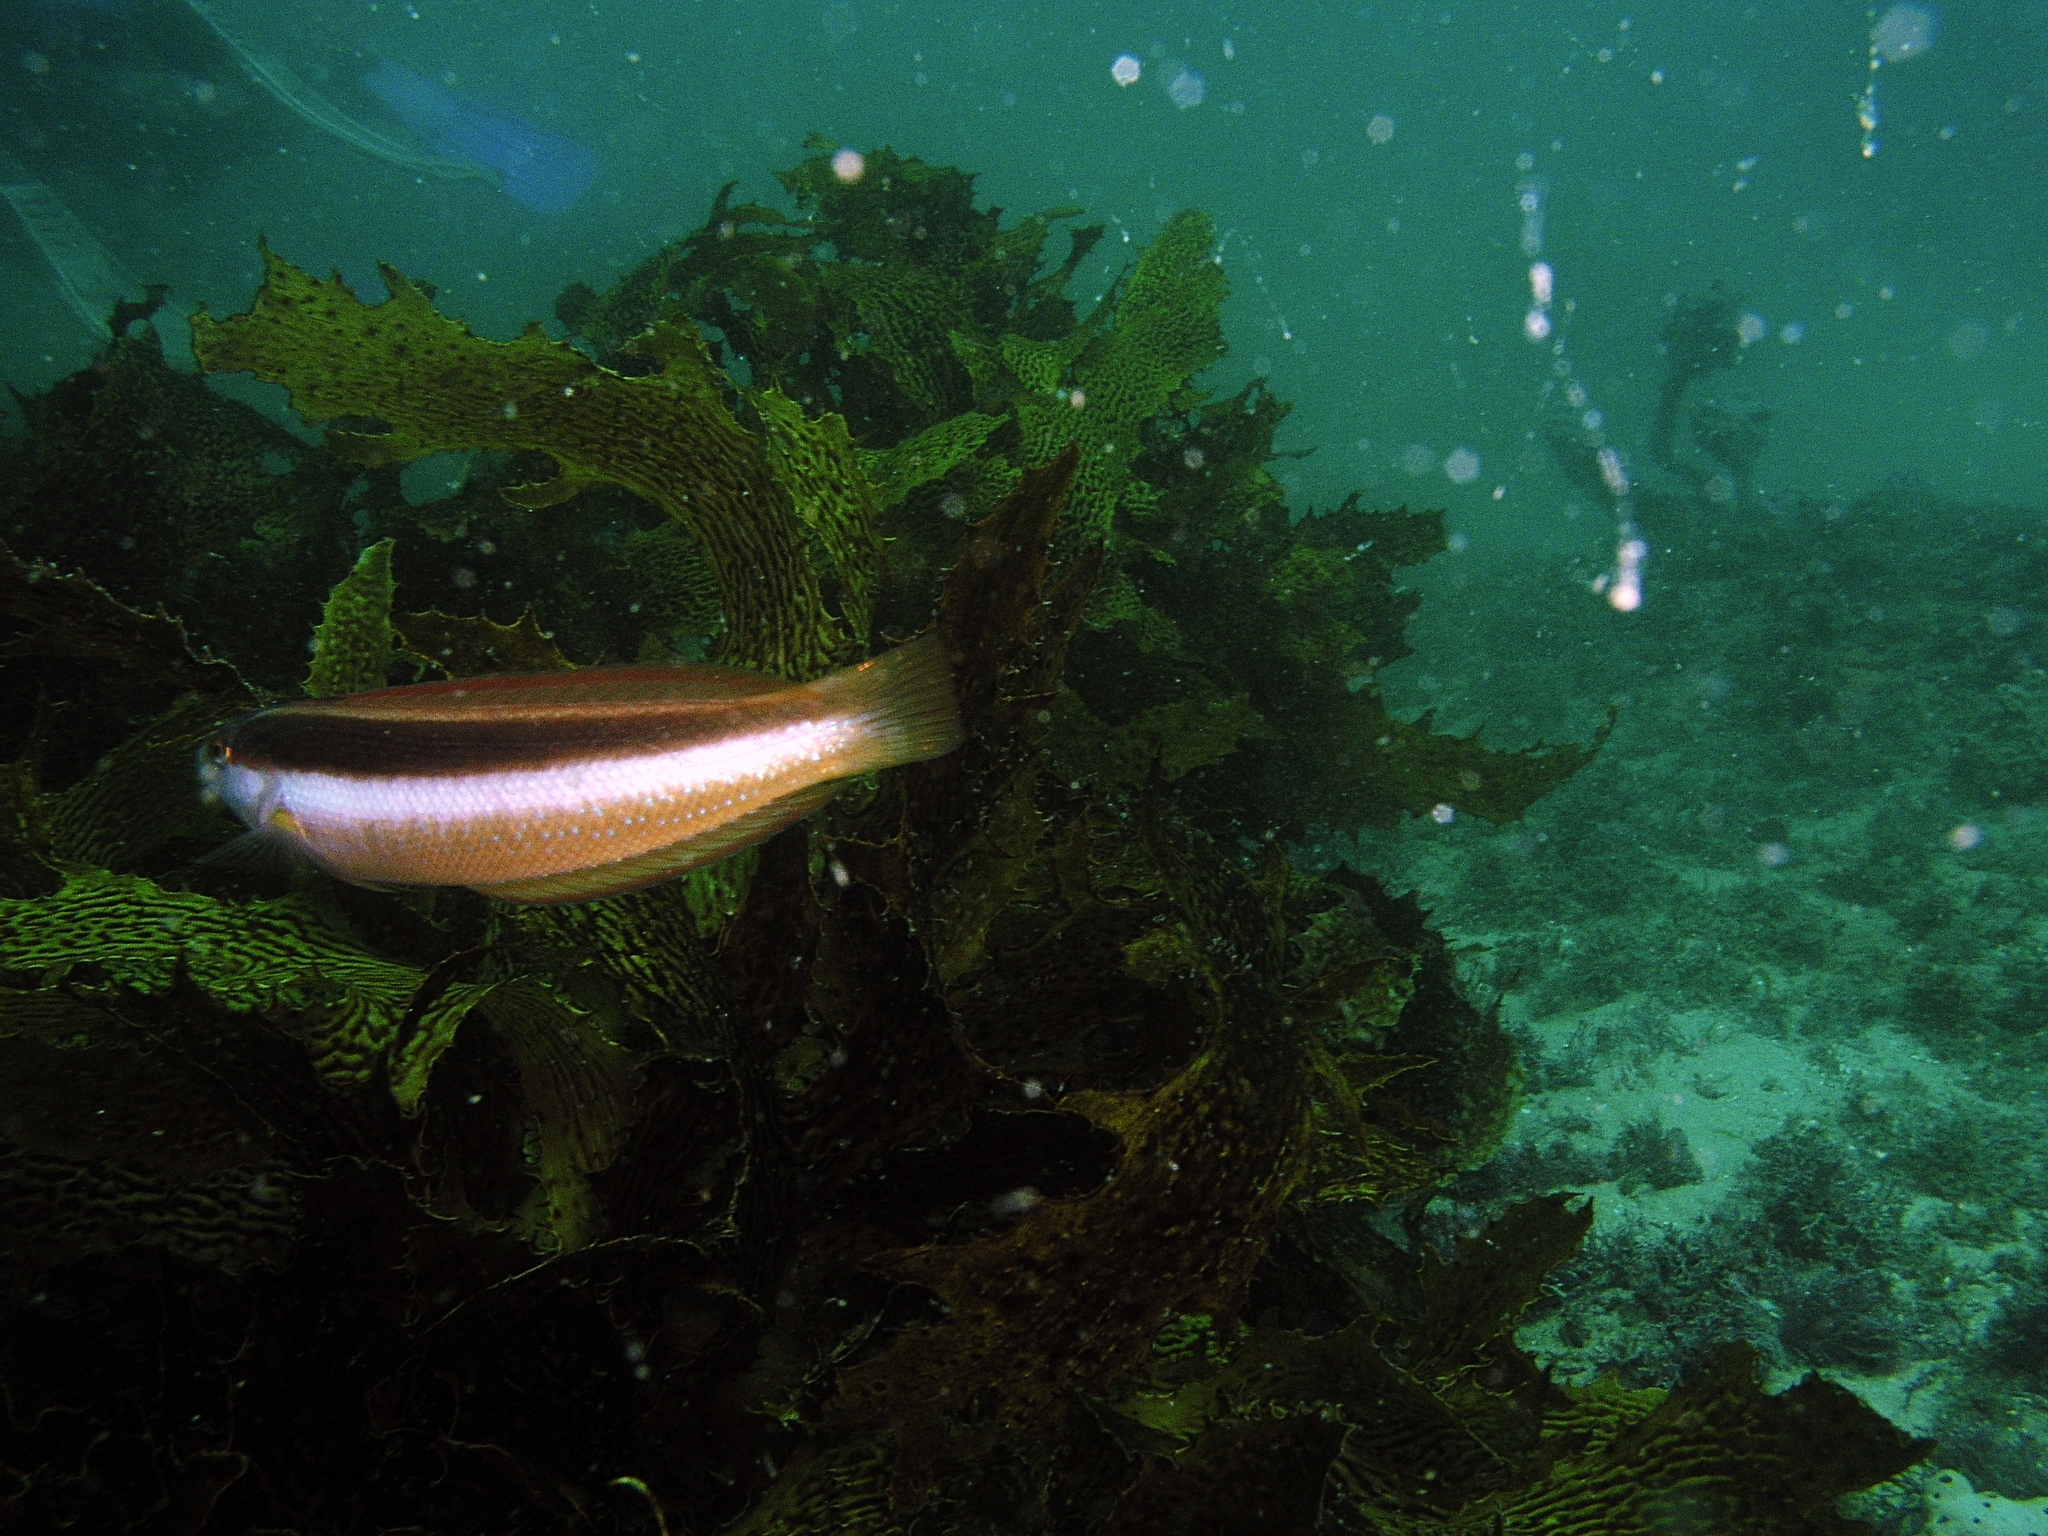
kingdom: Animalia
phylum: Chordata
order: Perciformes
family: Labridae
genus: Ophthalmolepis
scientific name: Ophthalmolepis lineolata
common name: Maori wrasse
